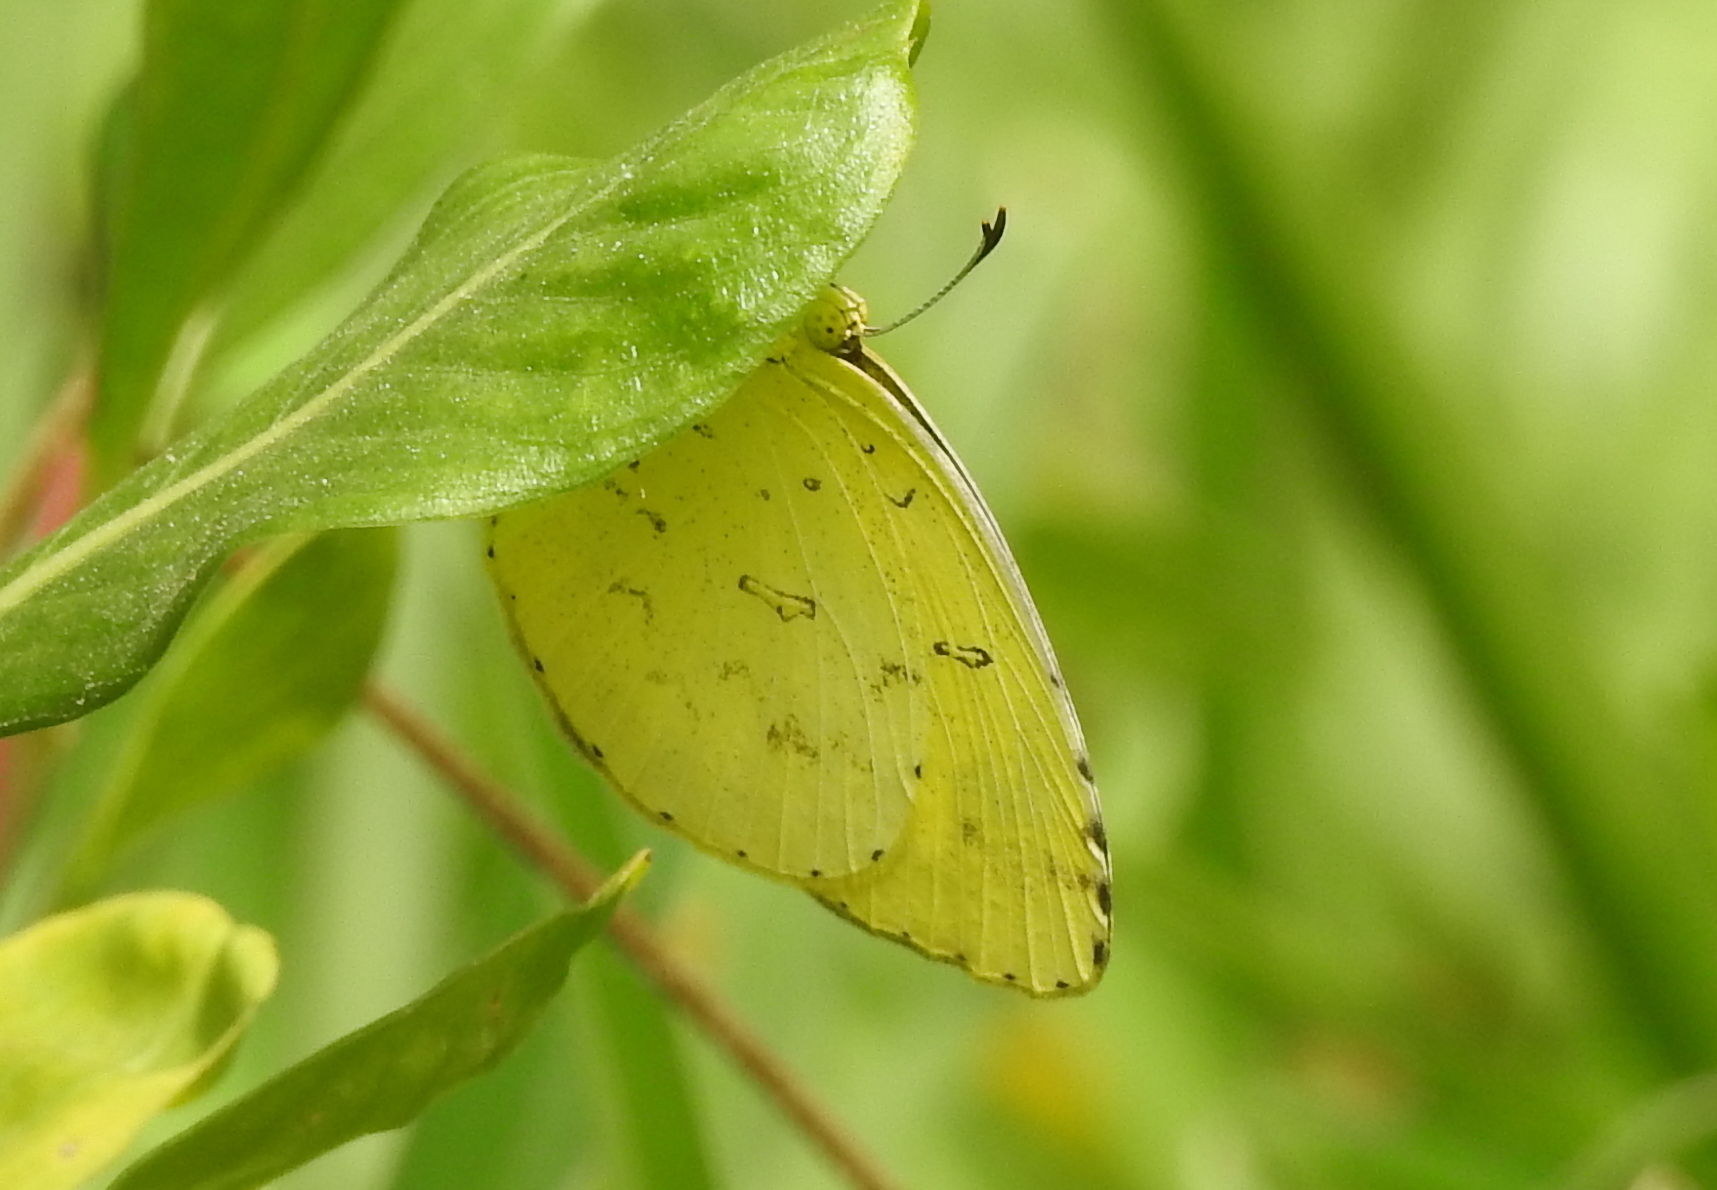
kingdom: Animalia
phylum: Arthropoda
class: Insecta
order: Lepidoptera
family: Pieridae
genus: Eurema
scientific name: Eurema hecabe
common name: Pale grass yellow
